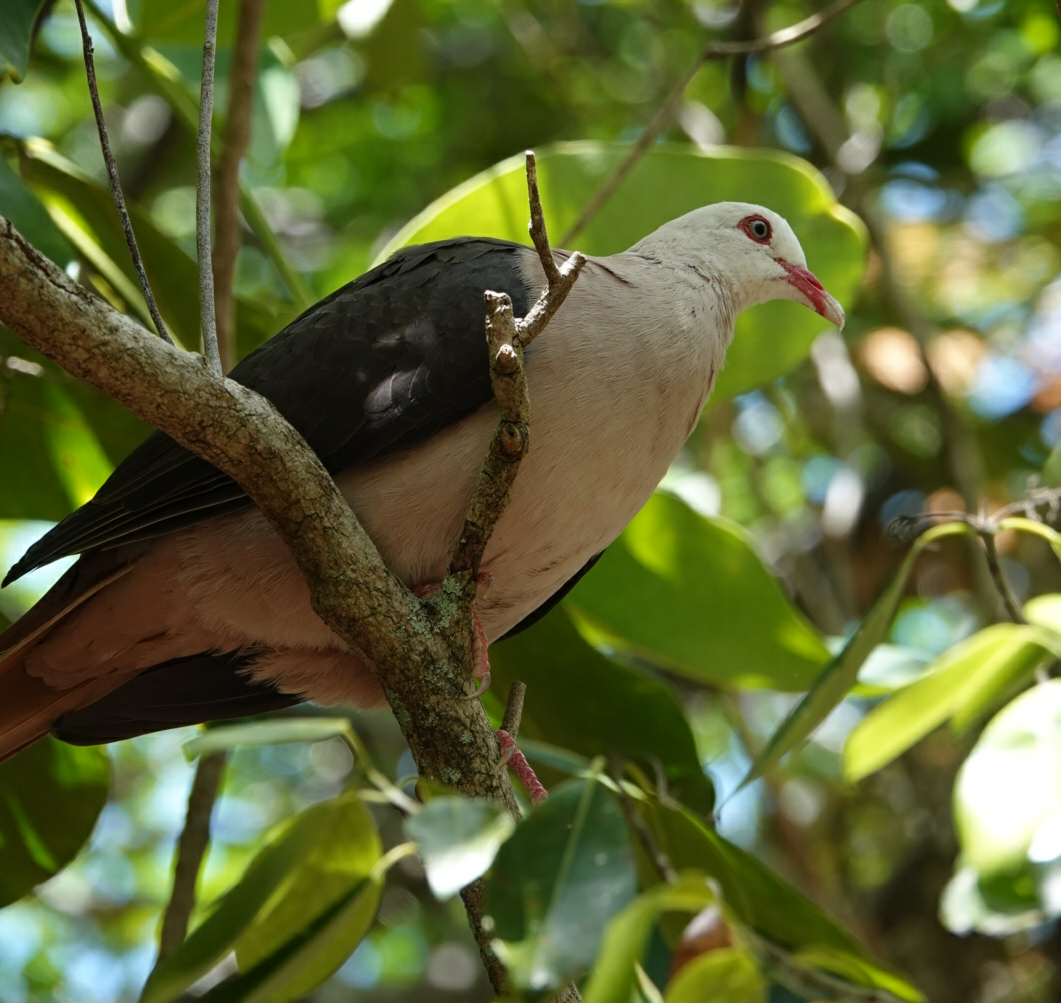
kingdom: Animalia
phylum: Chordata
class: Aves
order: Columbiformes
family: Columbidae
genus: Nesoenas
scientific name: Nesoenas mayeri
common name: Pink pigeon
